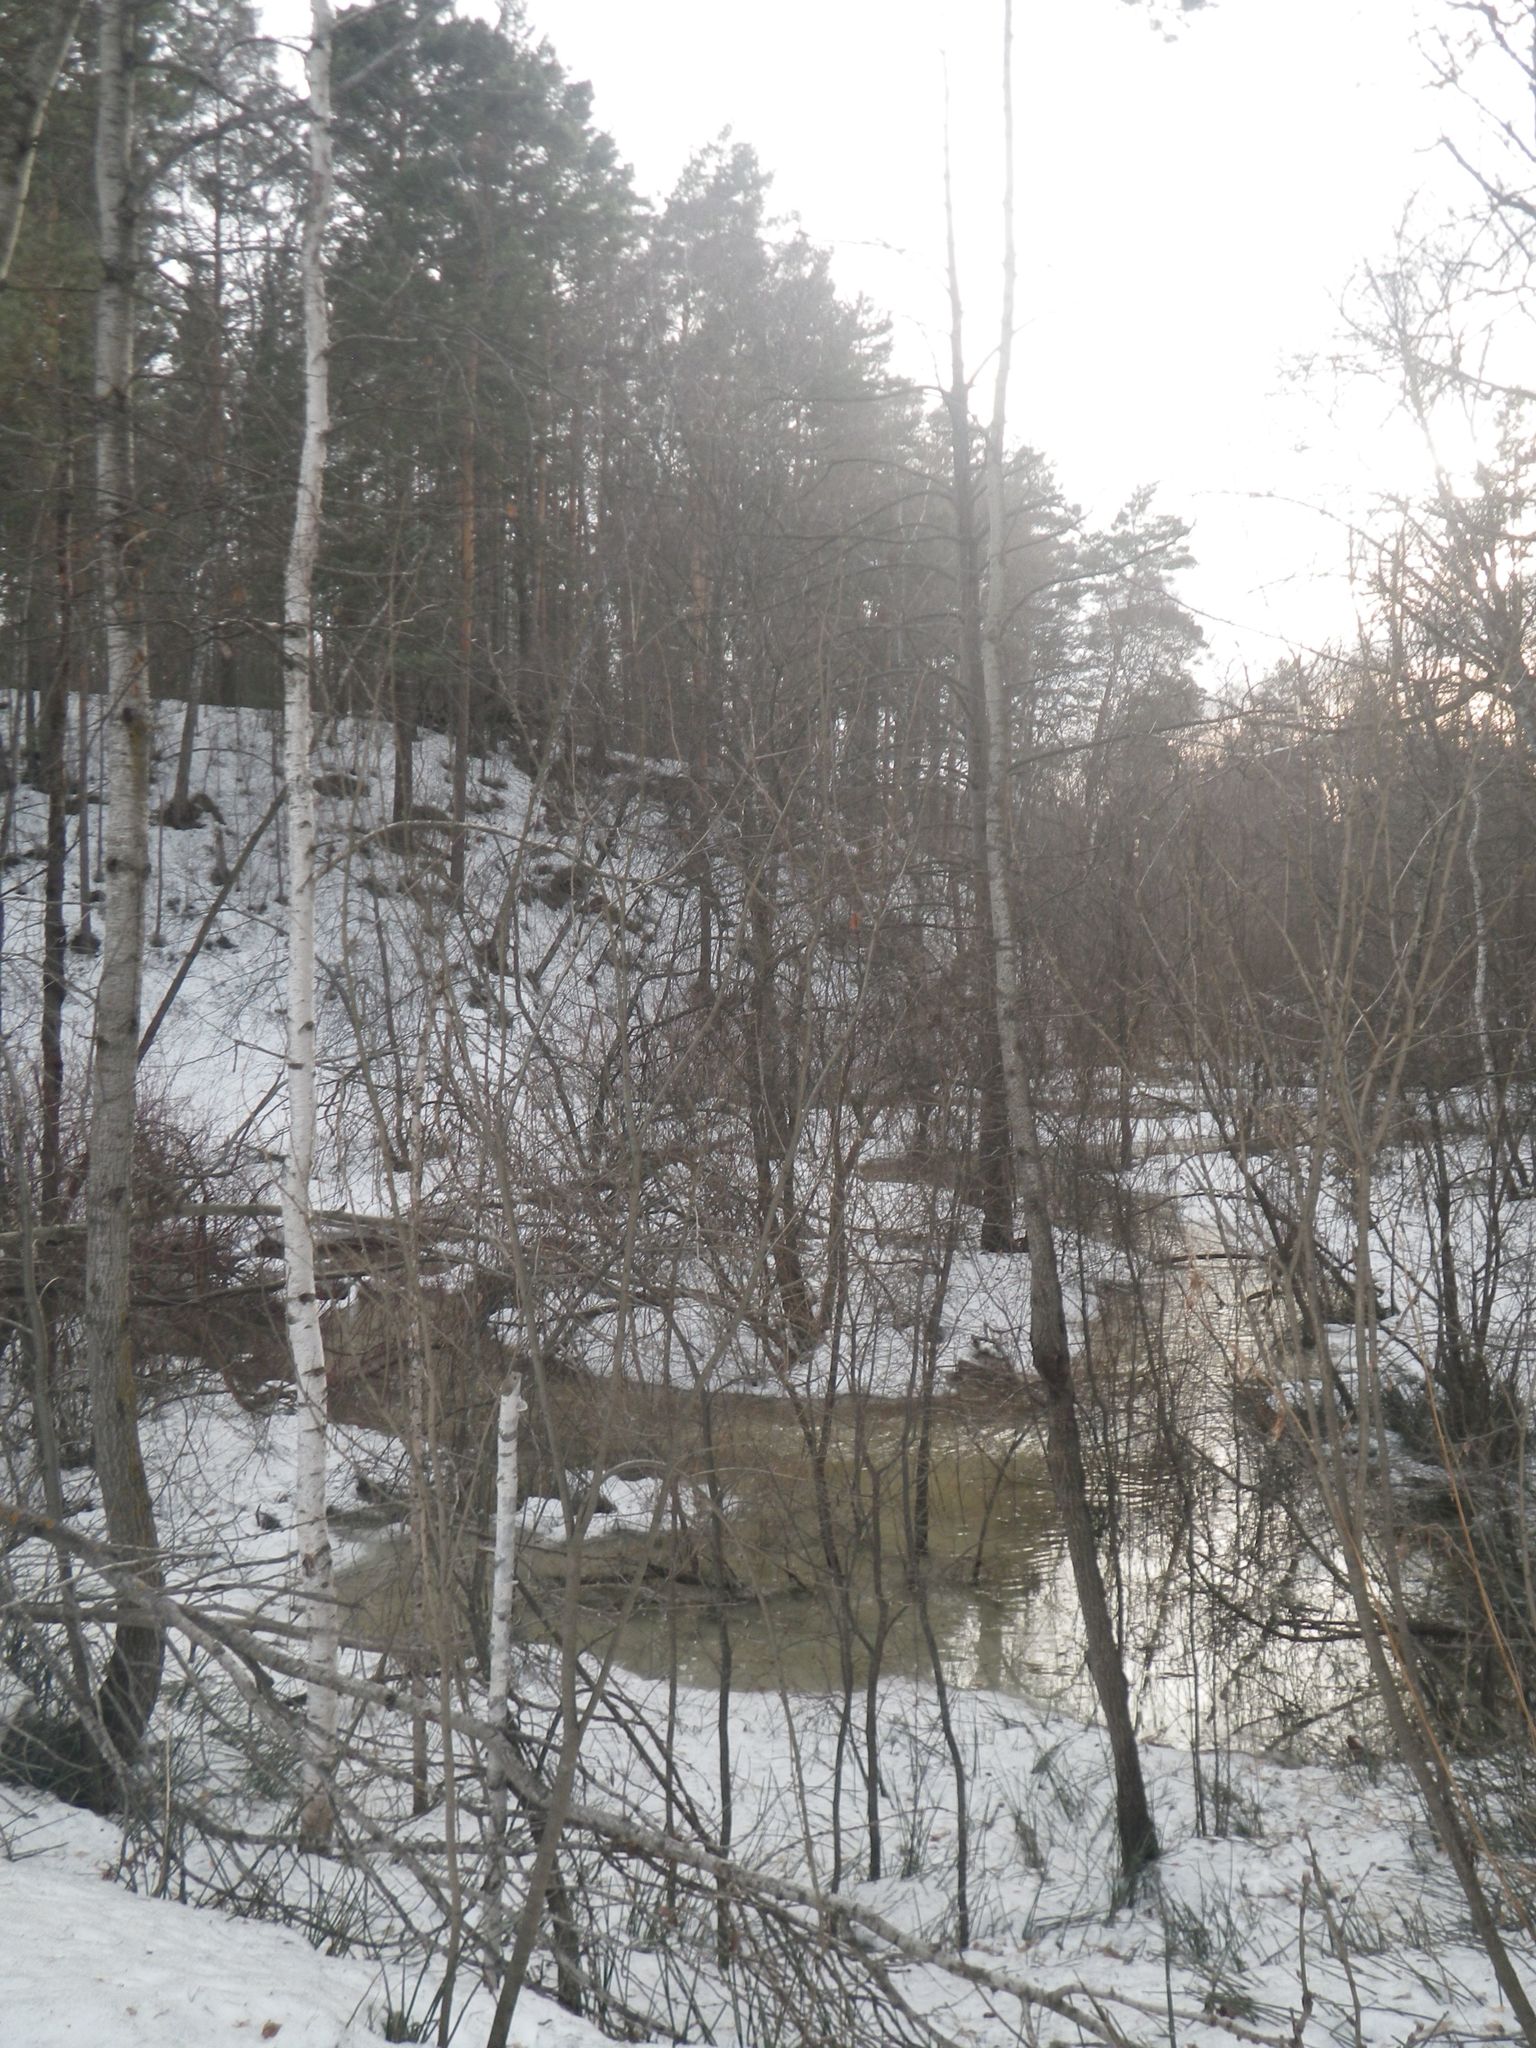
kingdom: Plantae
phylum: Tracheophyta
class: Magnoliopsida
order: Malpighiales
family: Salicaceae
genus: Populus
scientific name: Populus tremula
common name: European aspen
